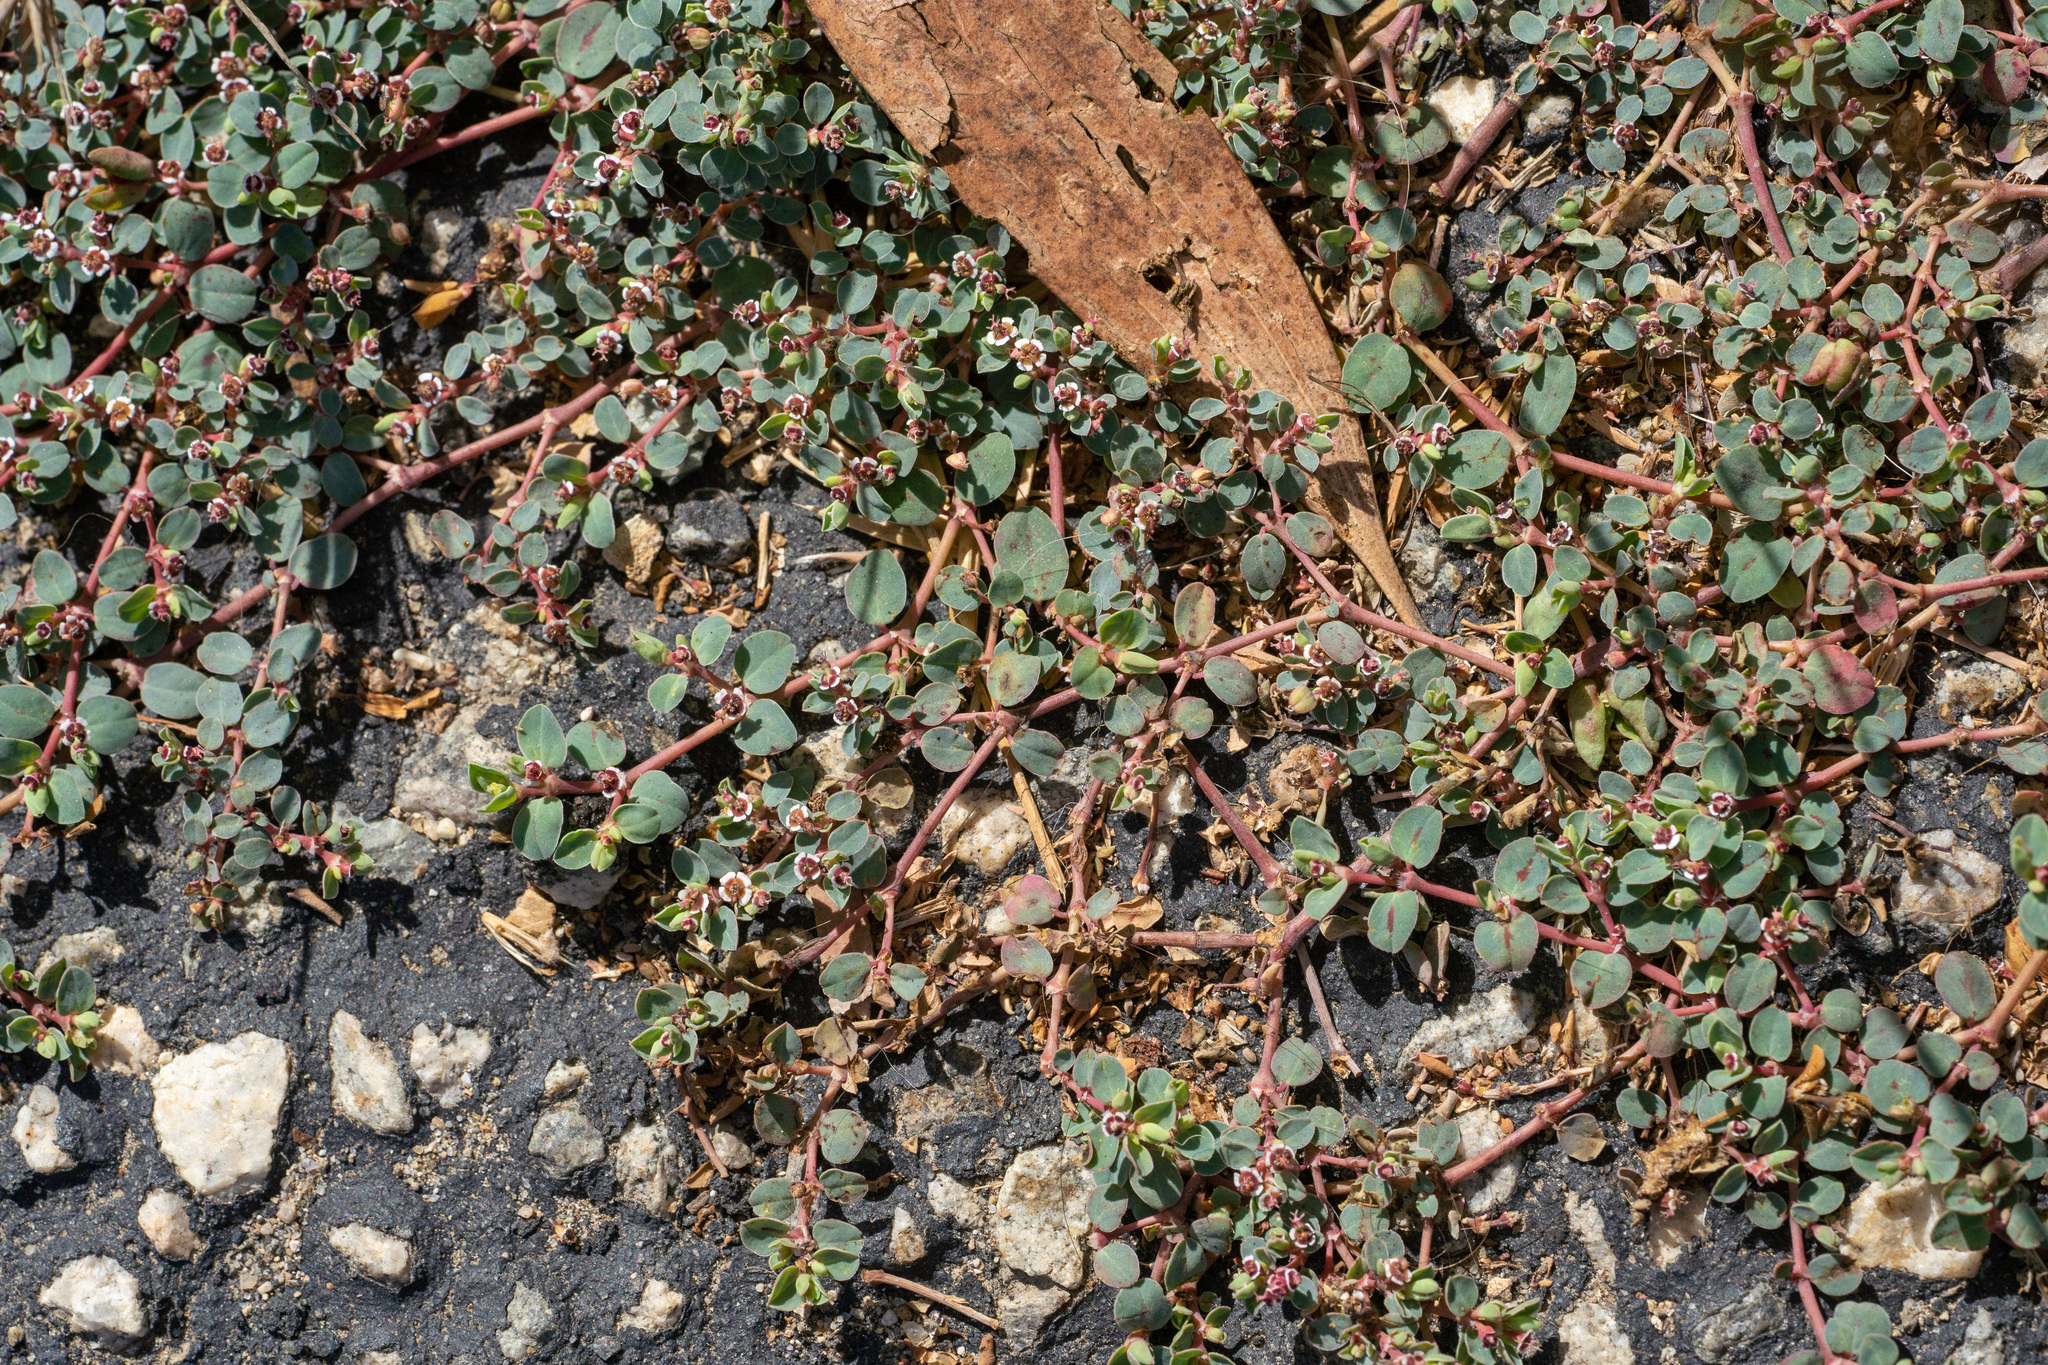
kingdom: Plantae
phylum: Tracheophyta
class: Magnoliopsida
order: Malpighiales
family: Euphorbiaceae
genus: Euphorbia
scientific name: Euphorbia albomarginata
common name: Whitemargin sandmat
